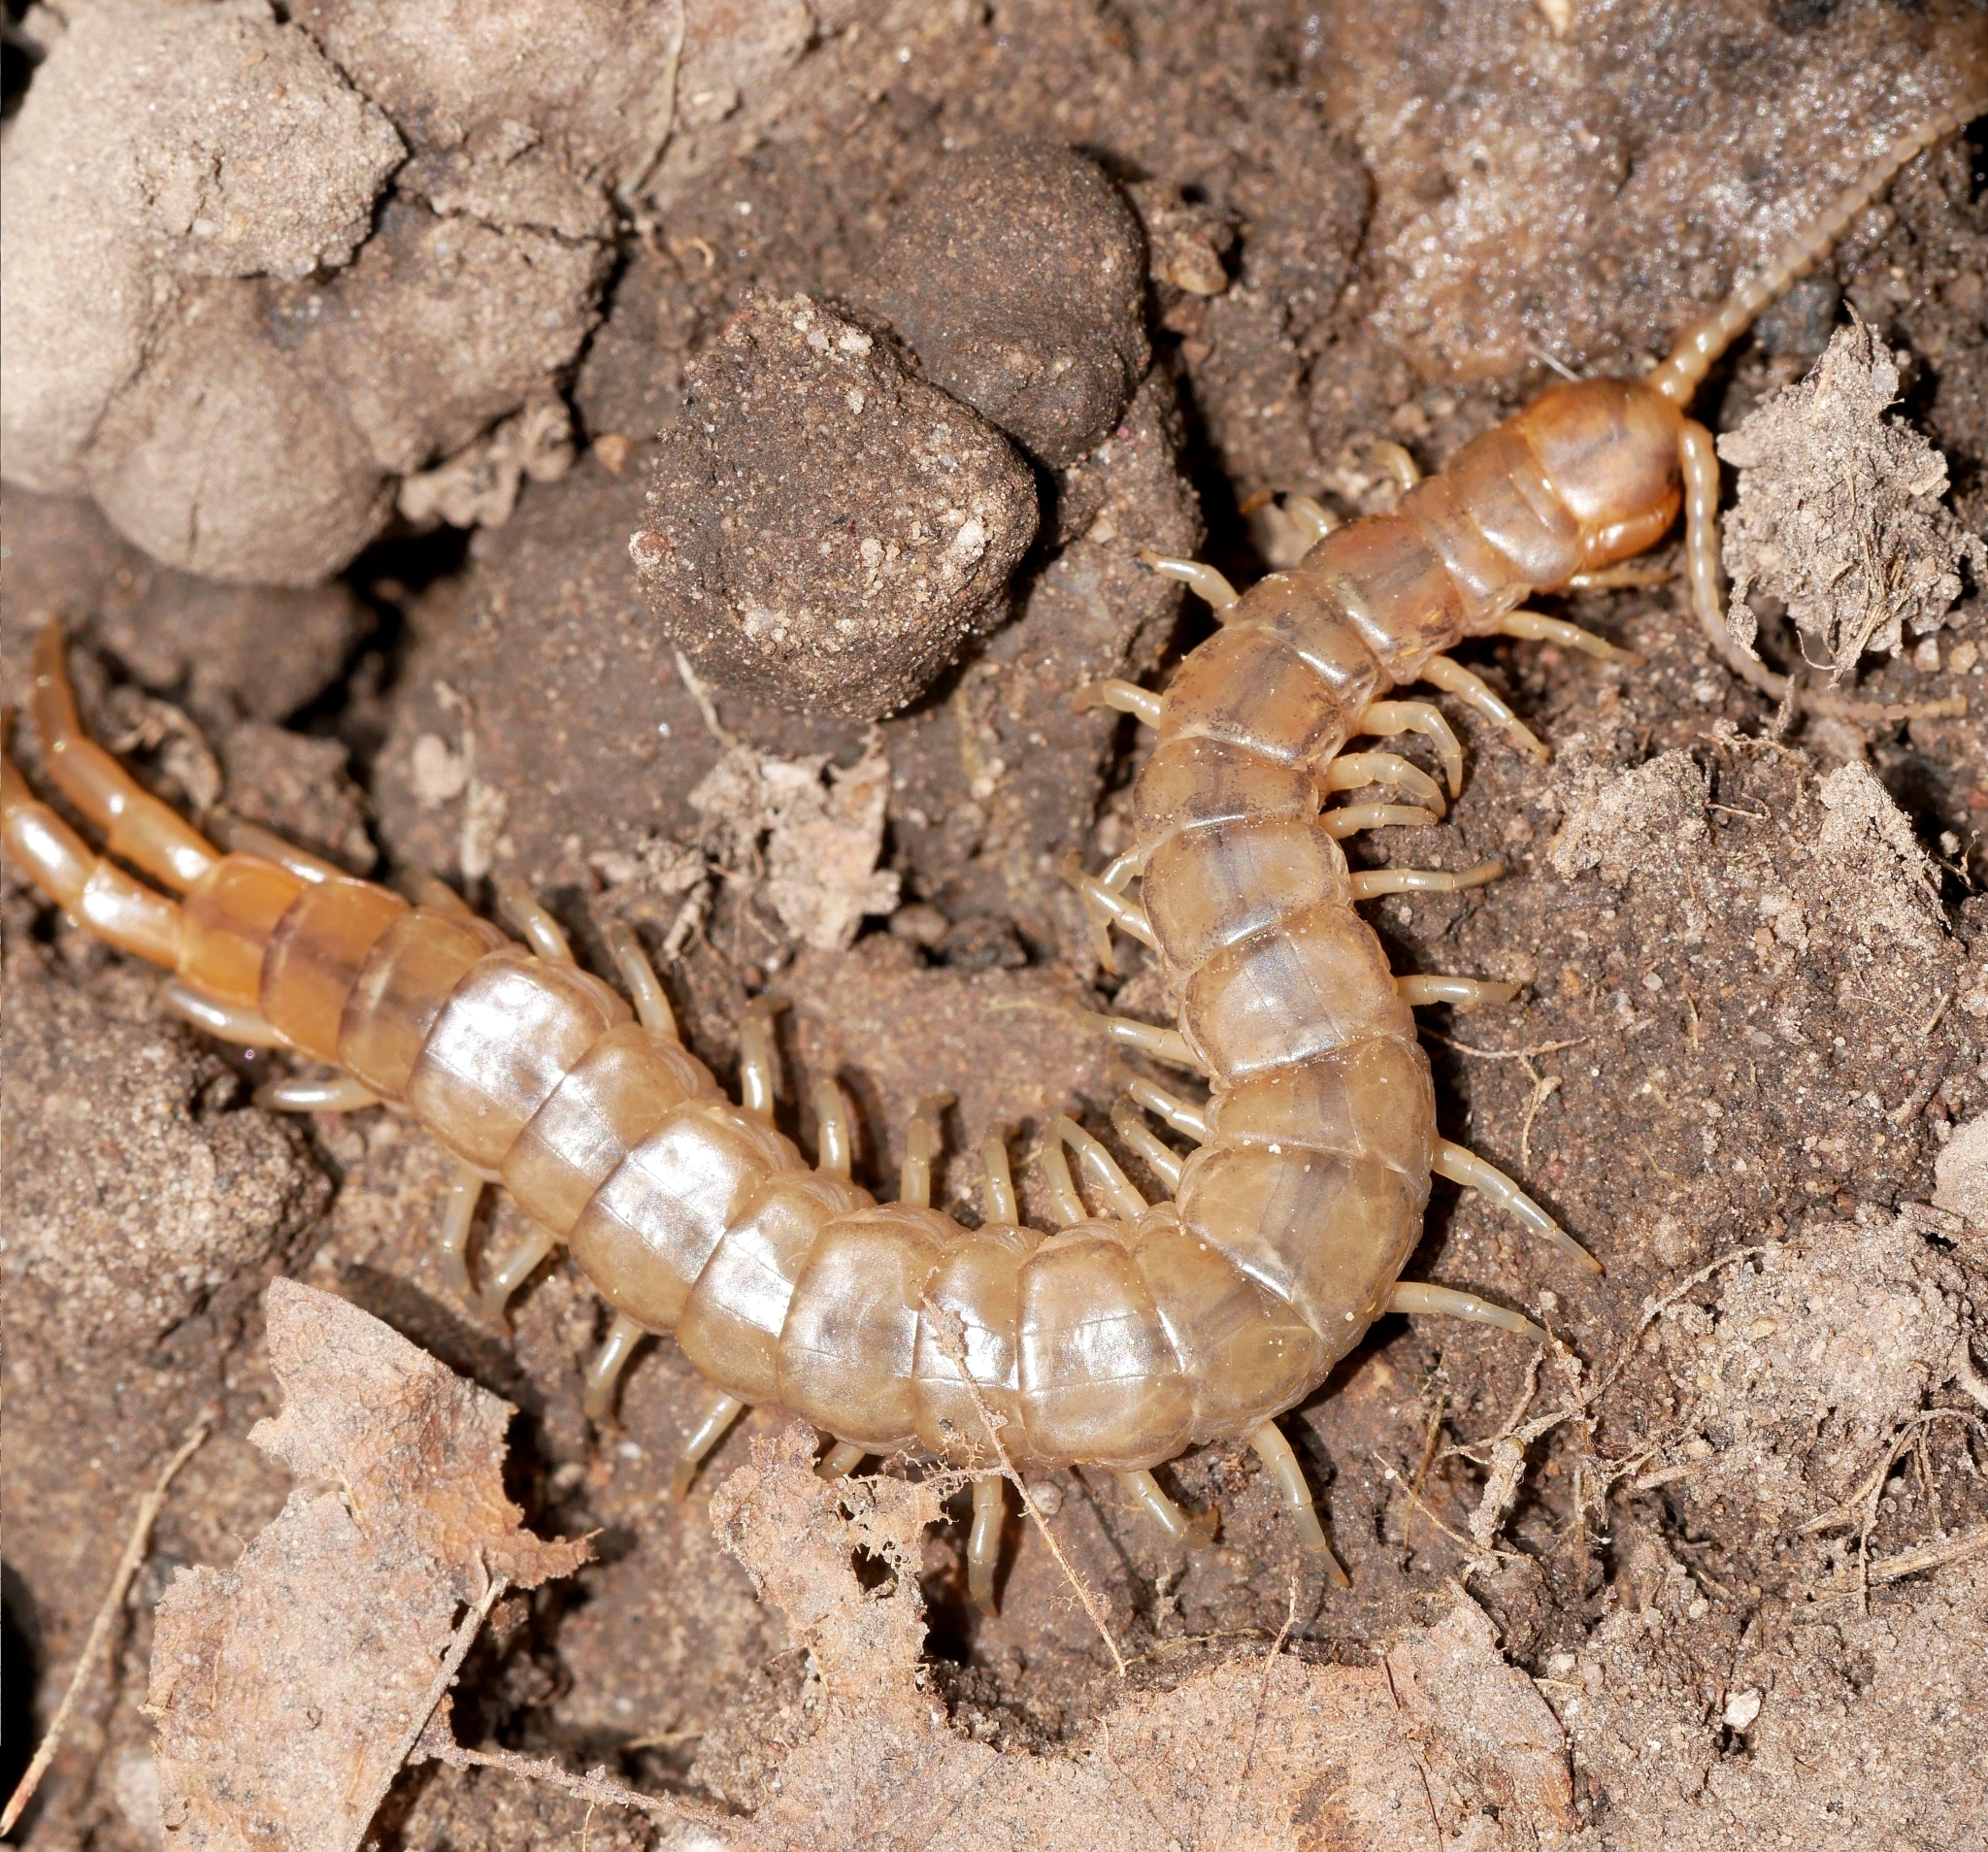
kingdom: Animalia
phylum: Arthropoda
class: Chilopoda
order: Scolopendromorpha
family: Scolopendridae
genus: Scolopendra
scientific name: Scolopendra viridis
